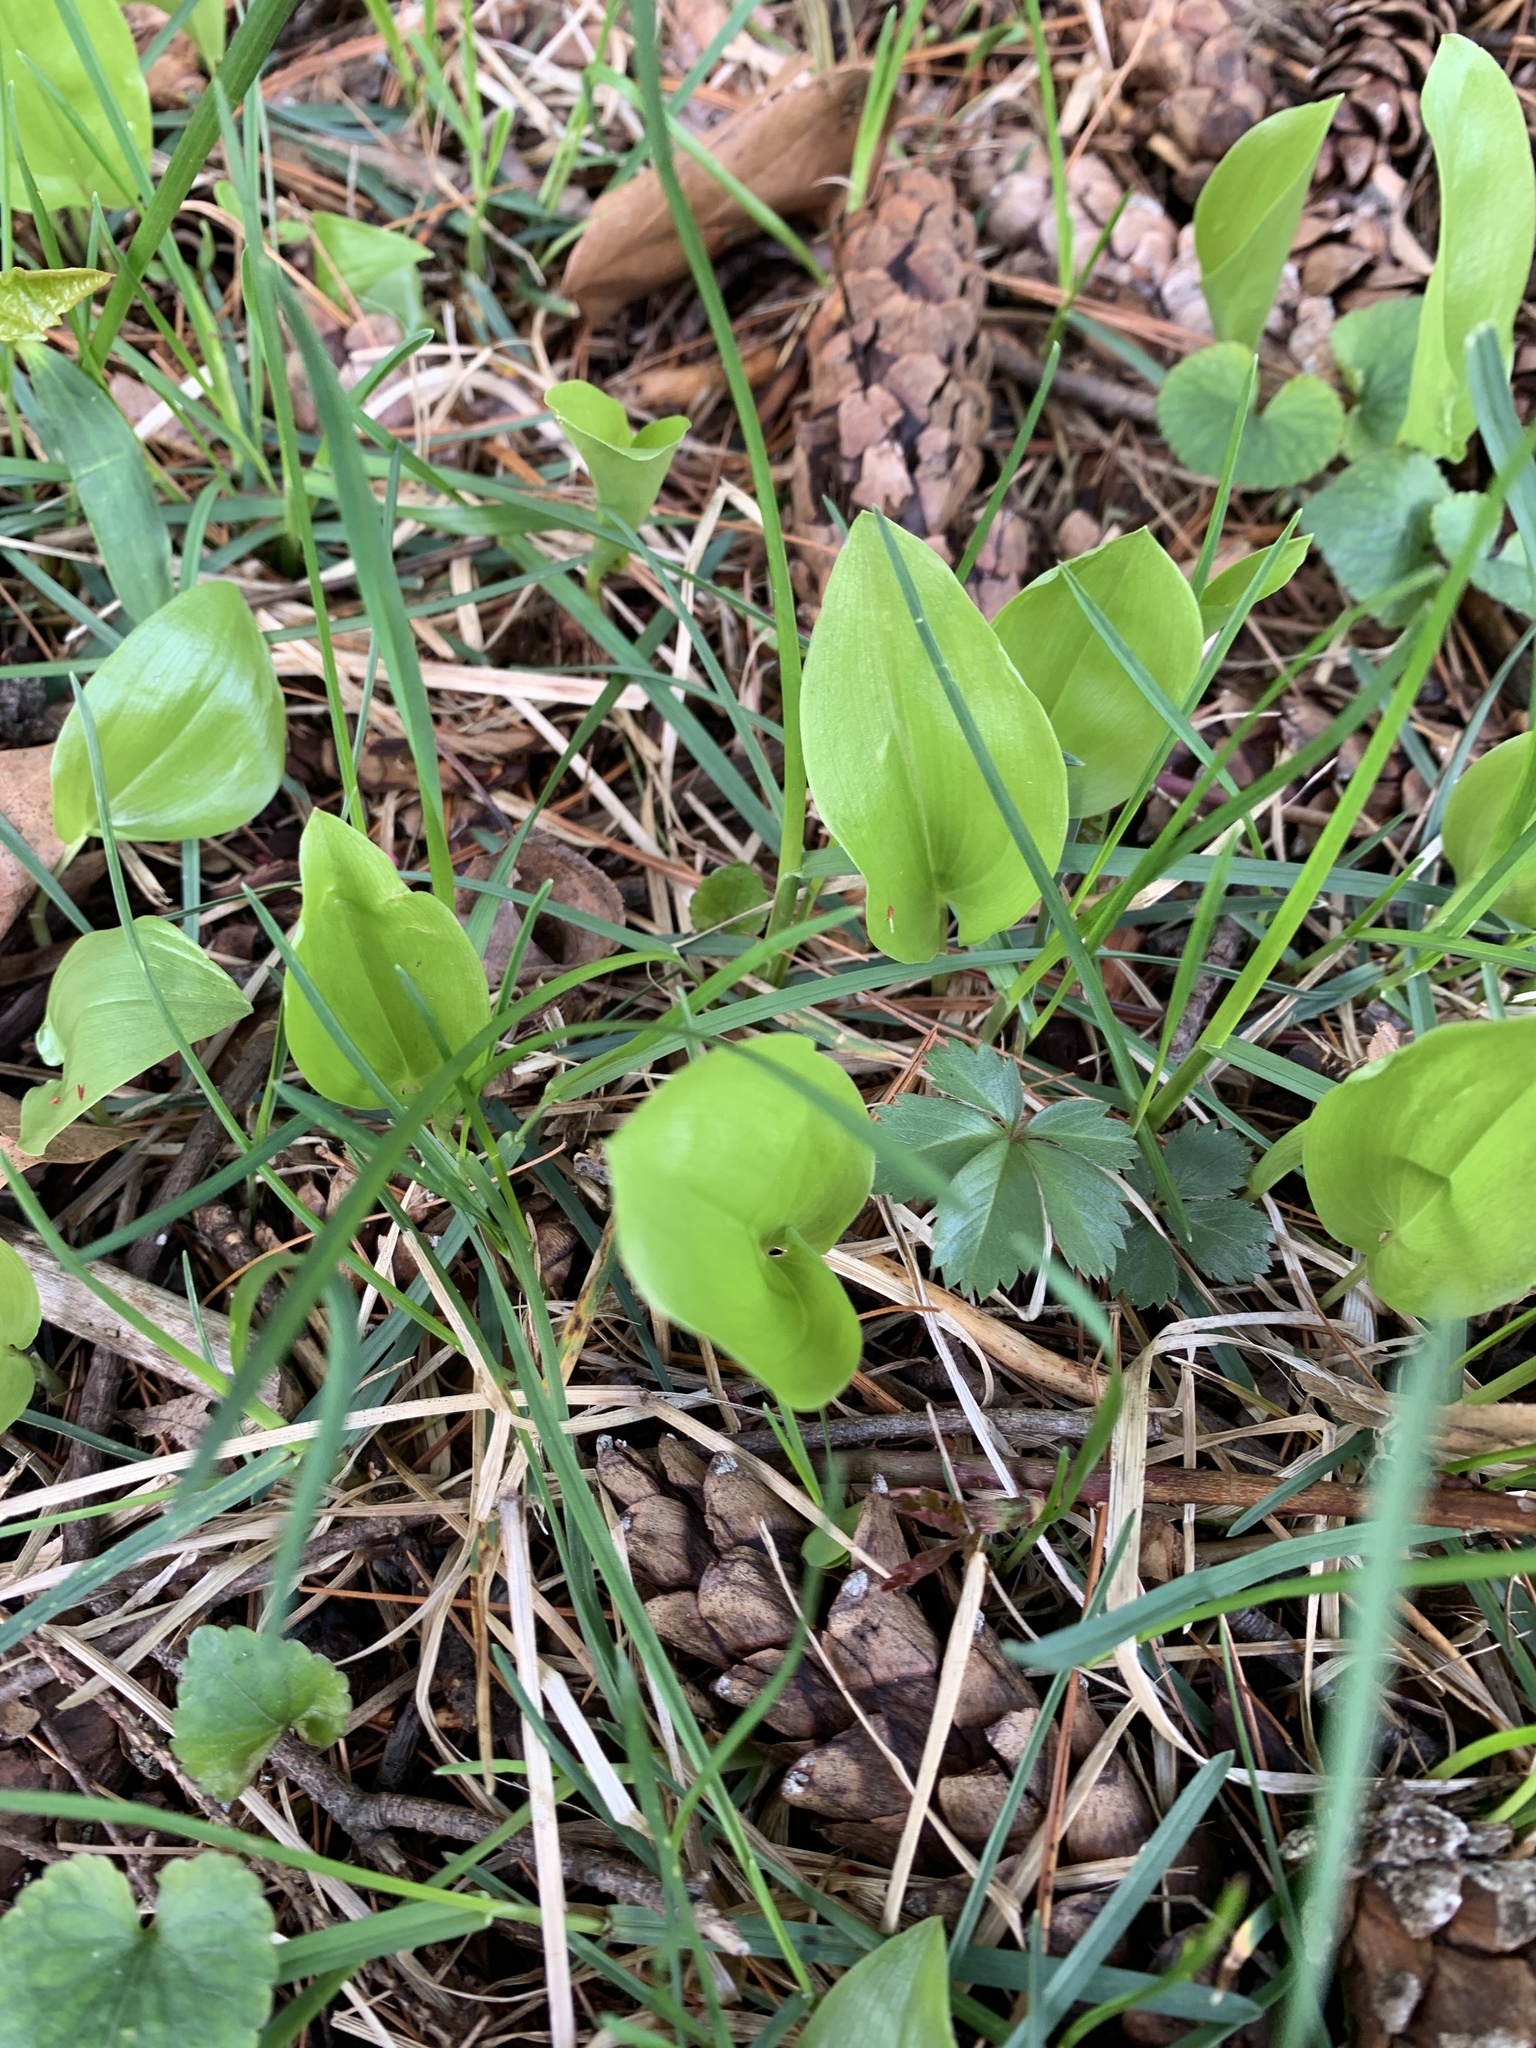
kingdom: Plantae
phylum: Tracheophyta
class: Liliopsida
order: Asparagales
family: Asparagaceae
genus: Maianthemum
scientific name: Maianthemum canadense
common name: False lily-of-the-valley
